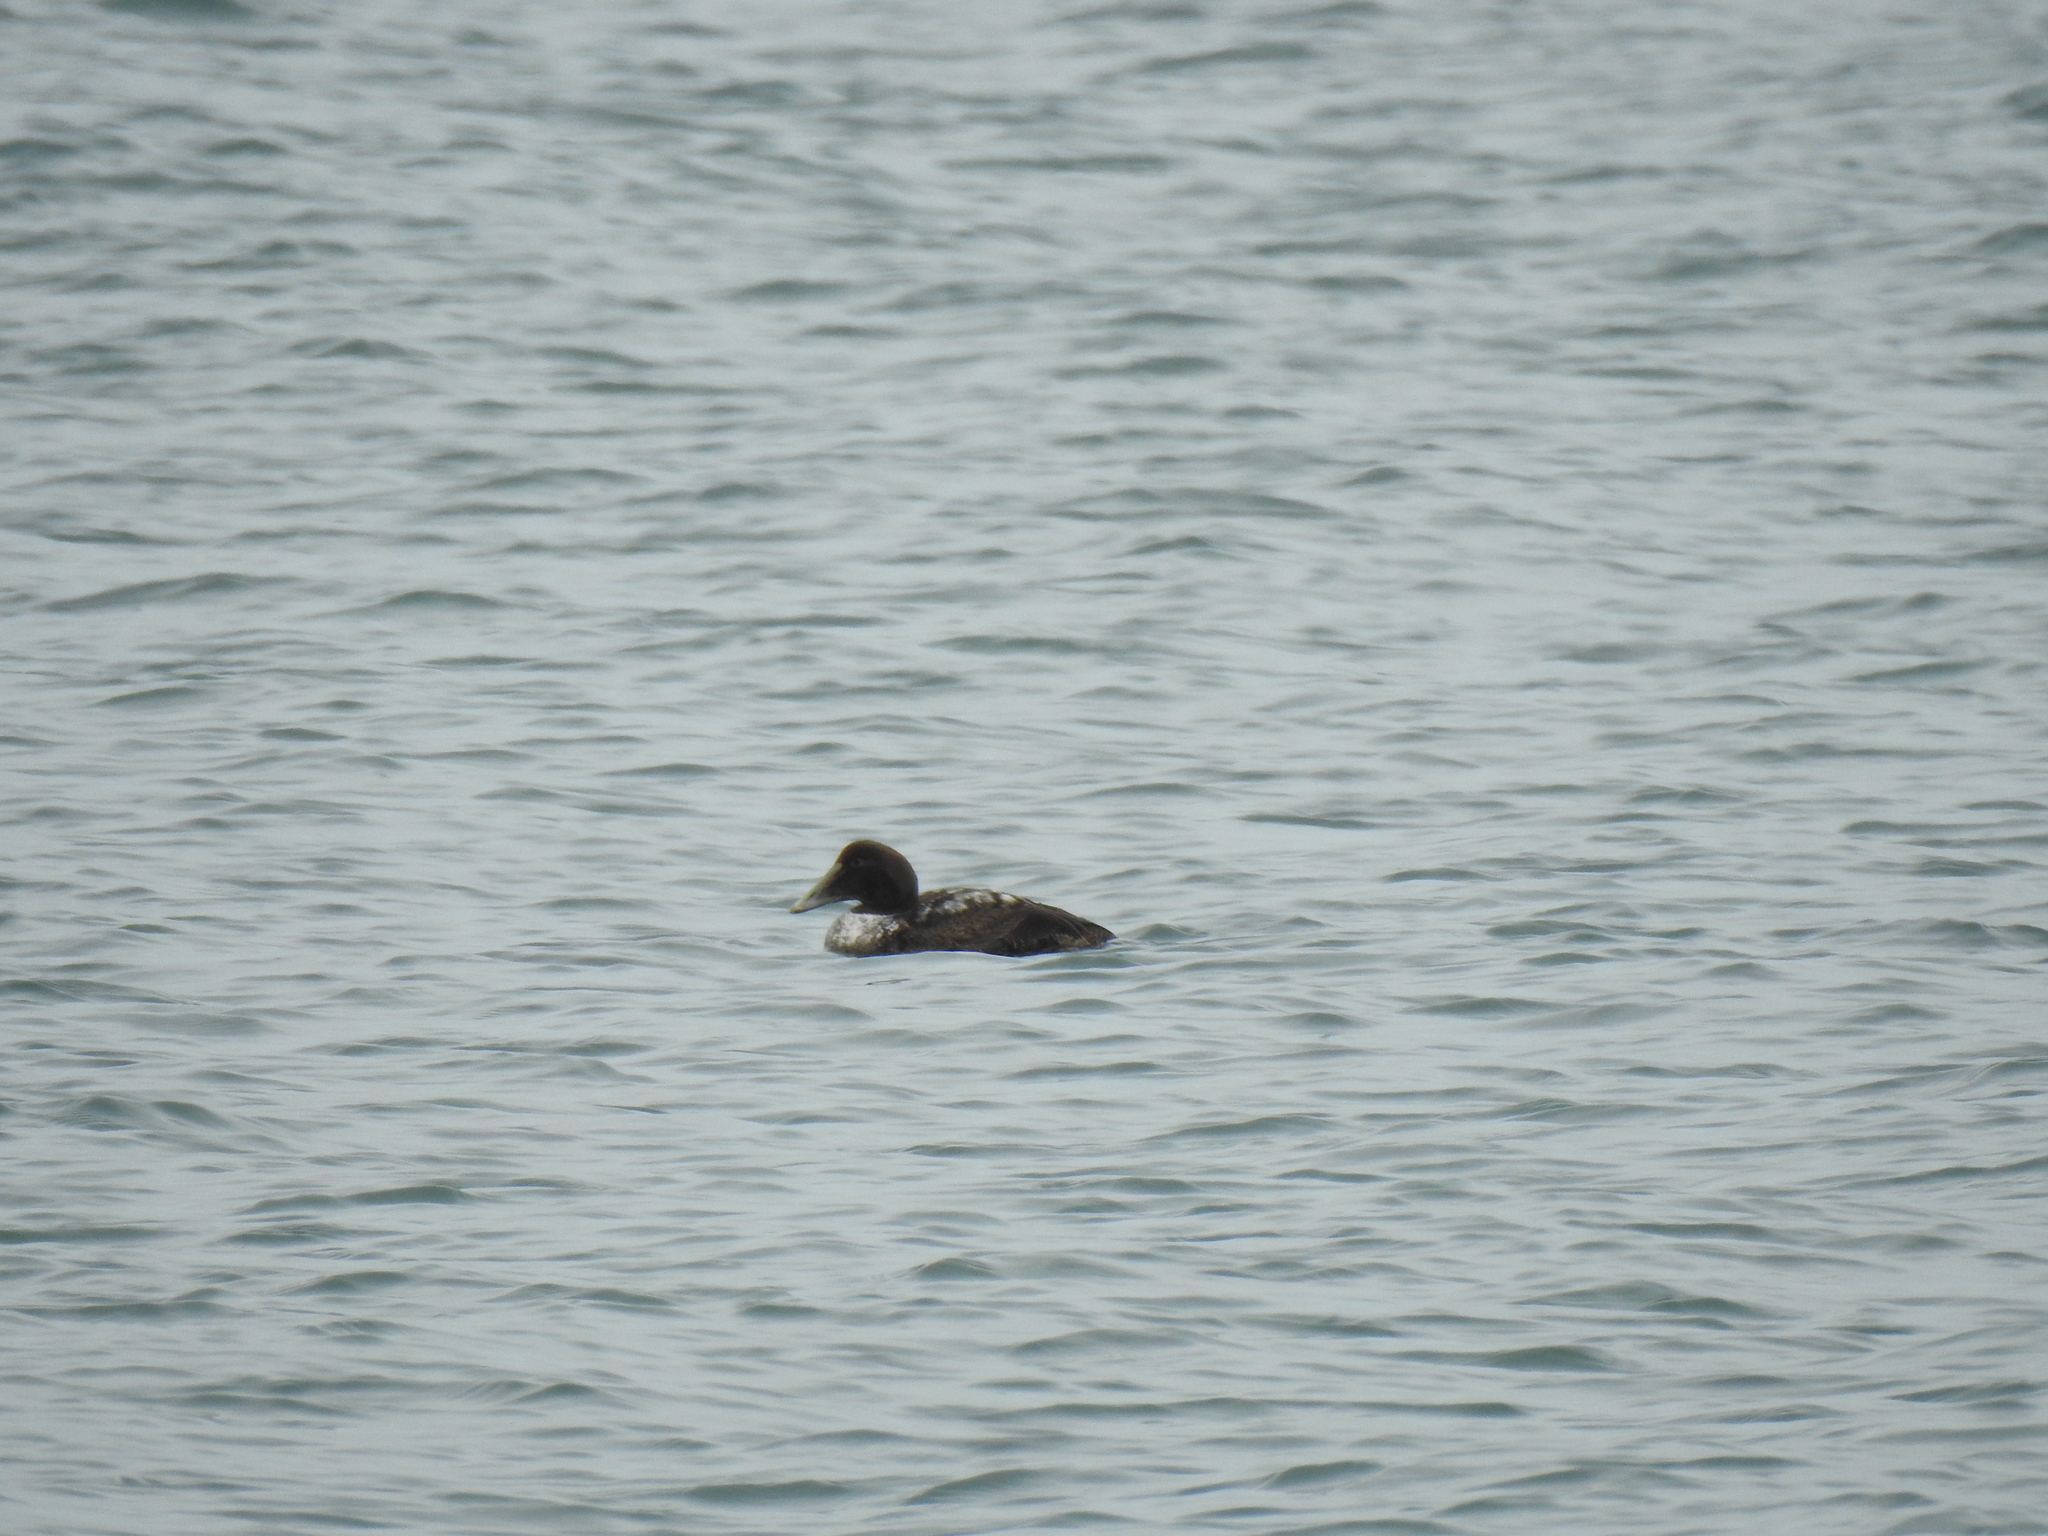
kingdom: Animalia
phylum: Chordata
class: Aves
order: Anseriformes
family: Anatidae
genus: Somateria
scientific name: Somateria mollissima
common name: Common eider
